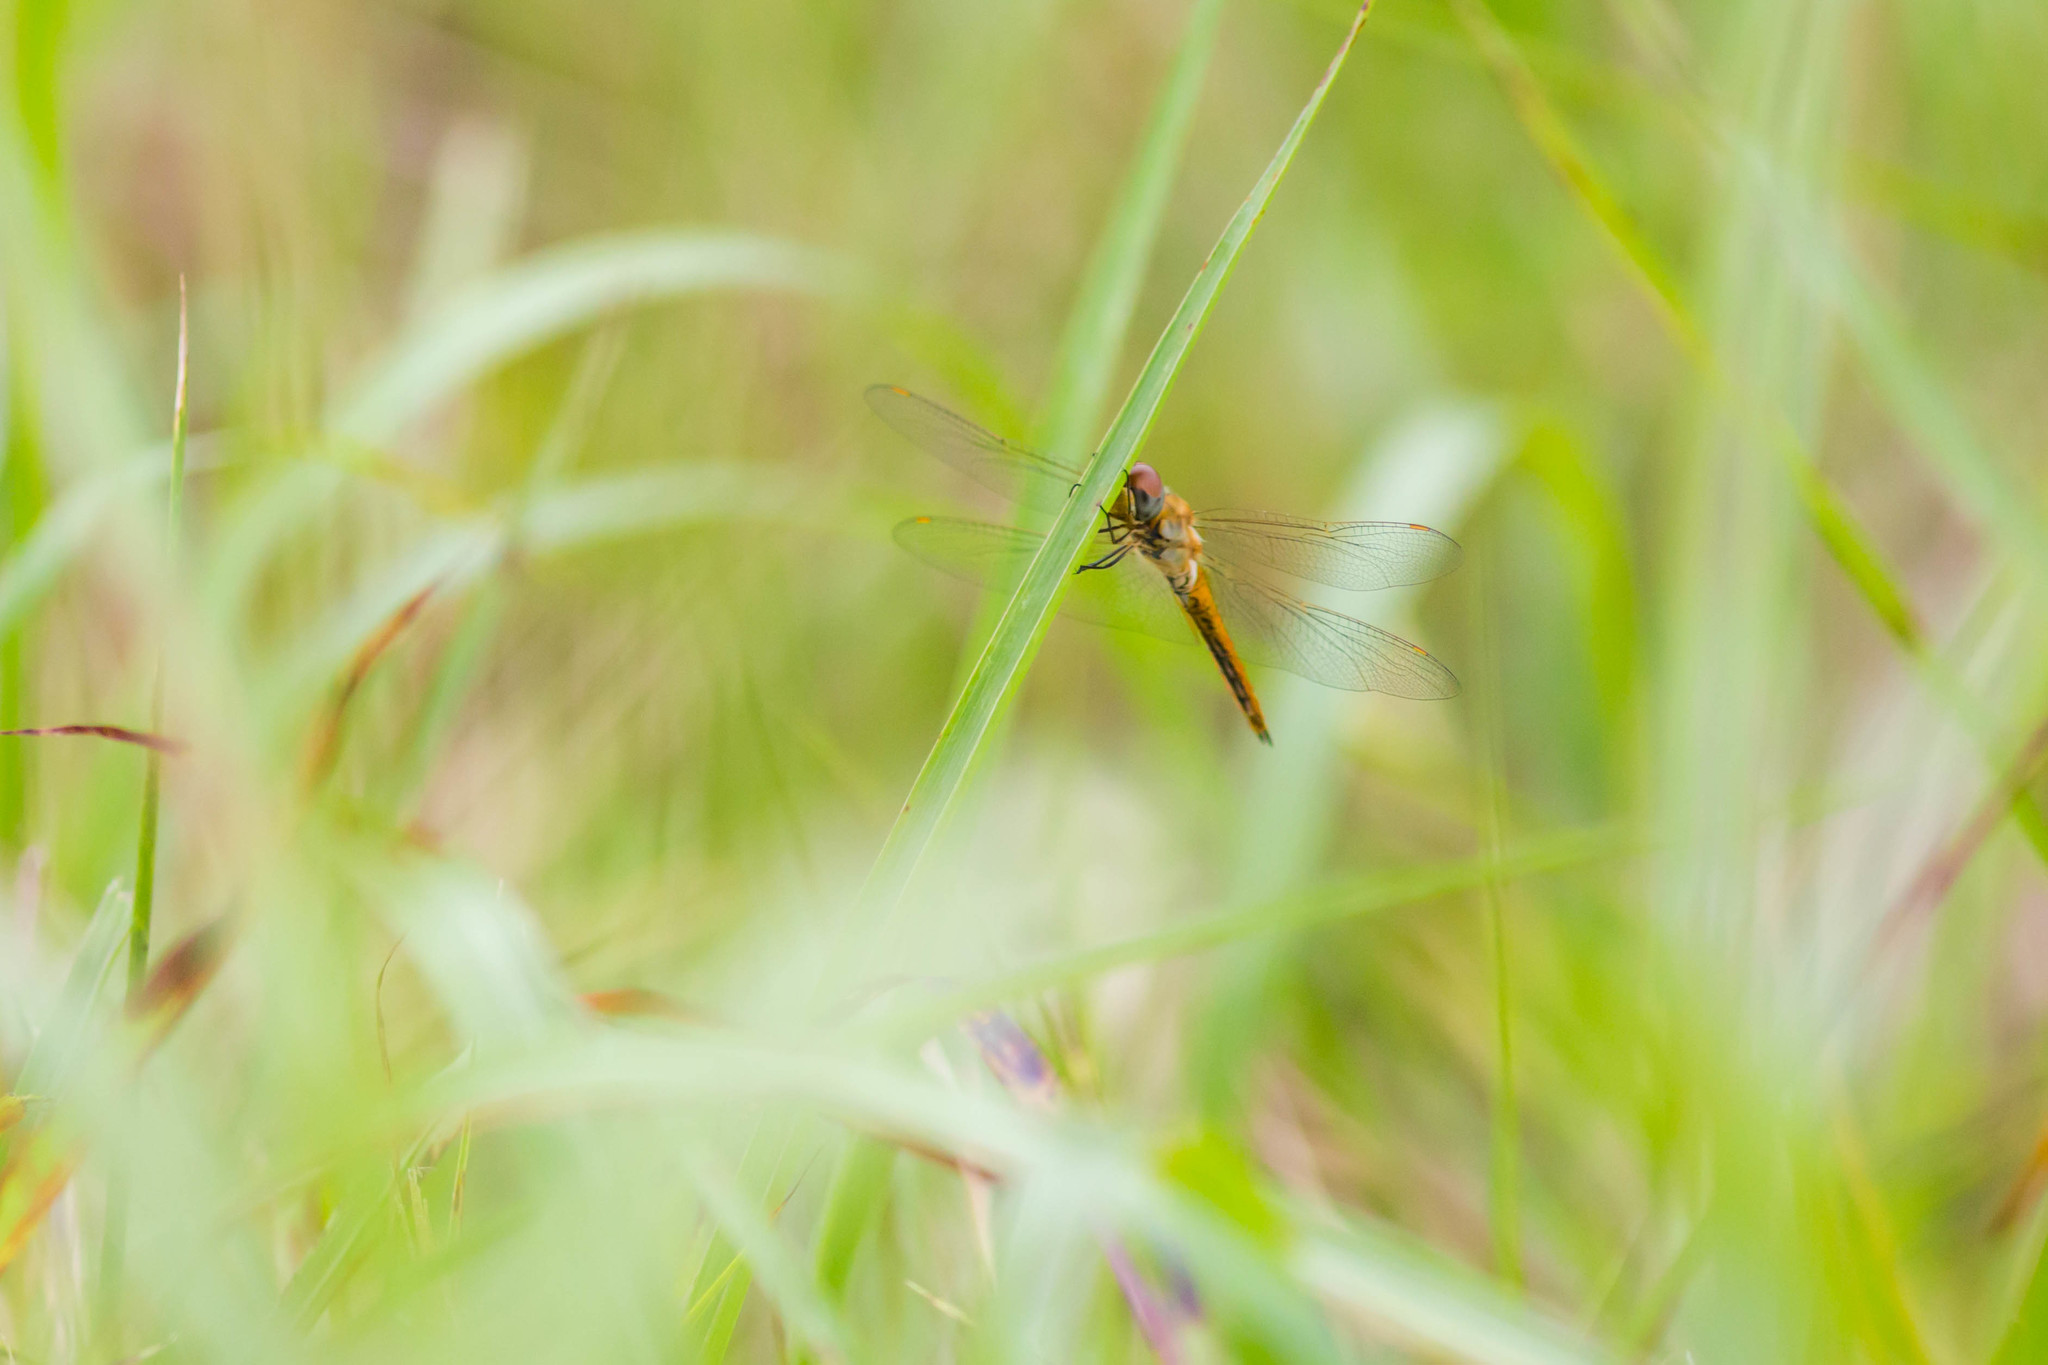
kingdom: Animalia
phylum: Arthropoda
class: Insecta
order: Odonata
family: Libellulidae
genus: Pantala
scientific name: Pantala flavescens
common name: Wandering glider
